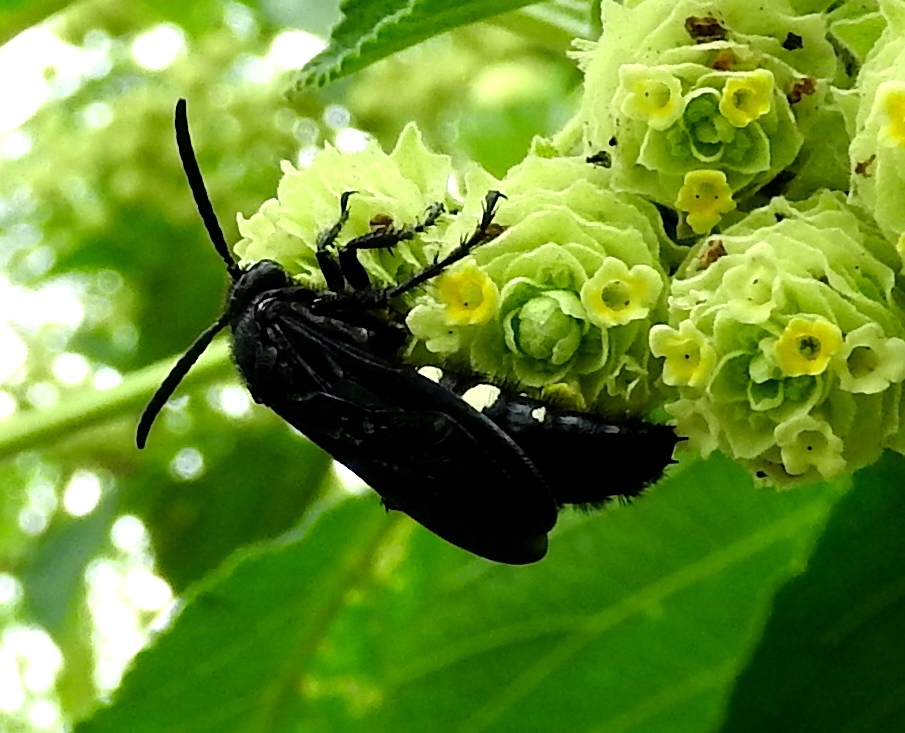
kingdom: Animalia
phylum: Arthropoda
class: Insecta
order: Hymenoptera
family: Scoliidae
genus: Scolia
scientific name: Scolia guttata
